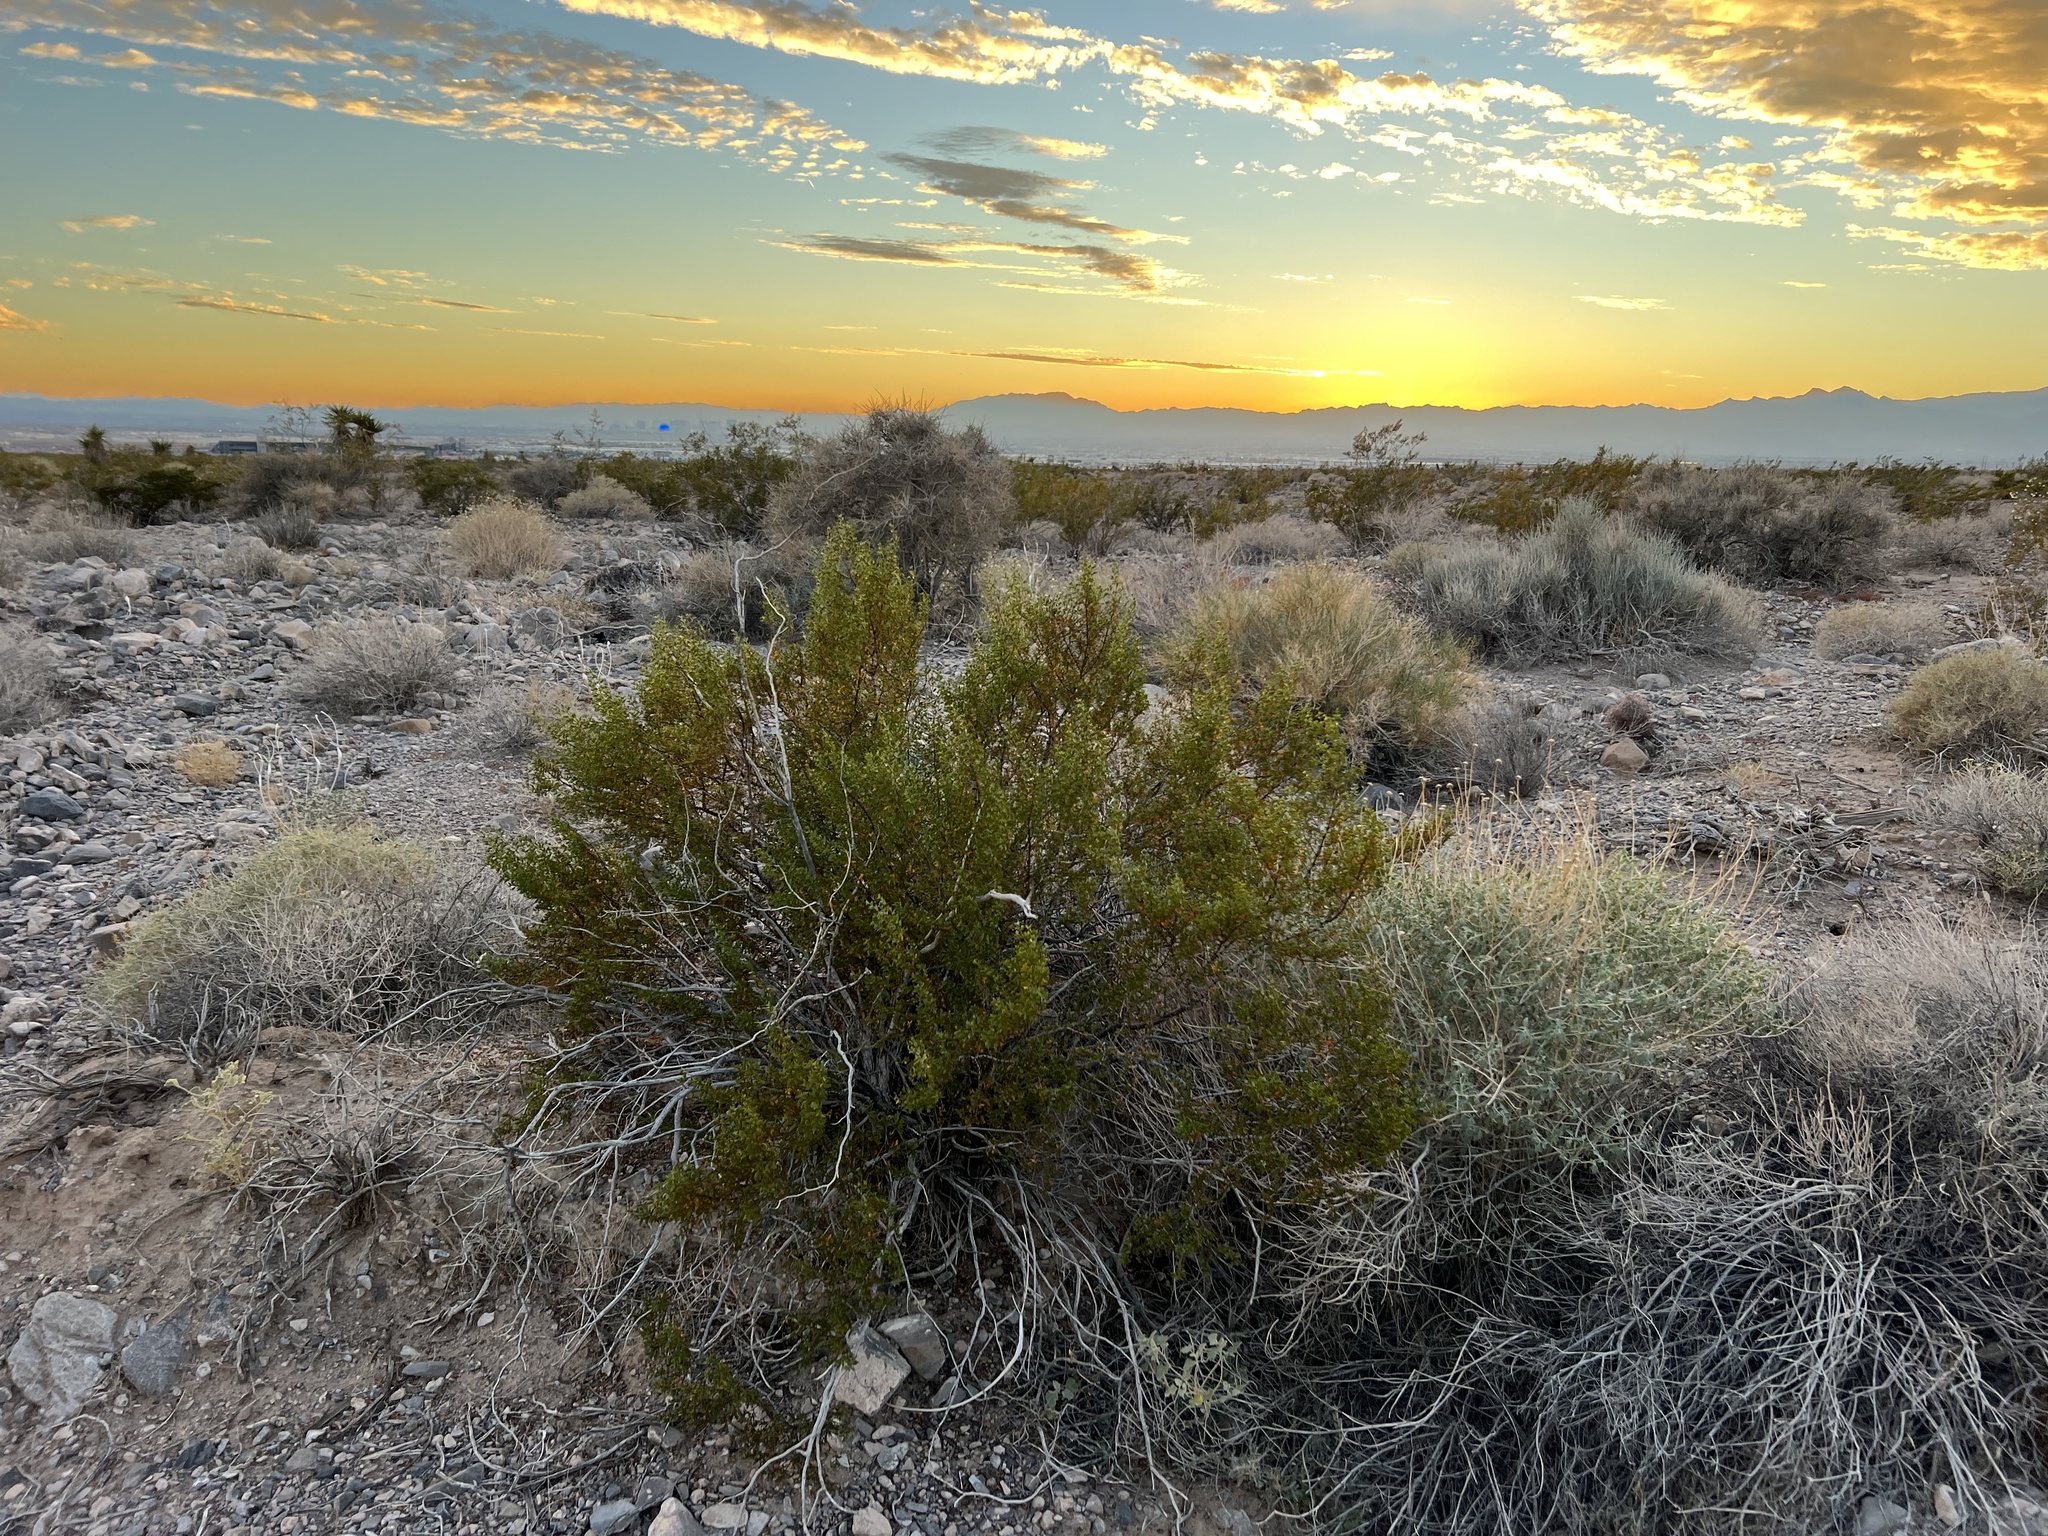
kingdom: Plantae
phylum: Tracheophyta
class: Magnoliopsida
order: Zygophyllales
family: Zygophyllaceae
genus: Larrea
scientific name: Larrea tridentata
